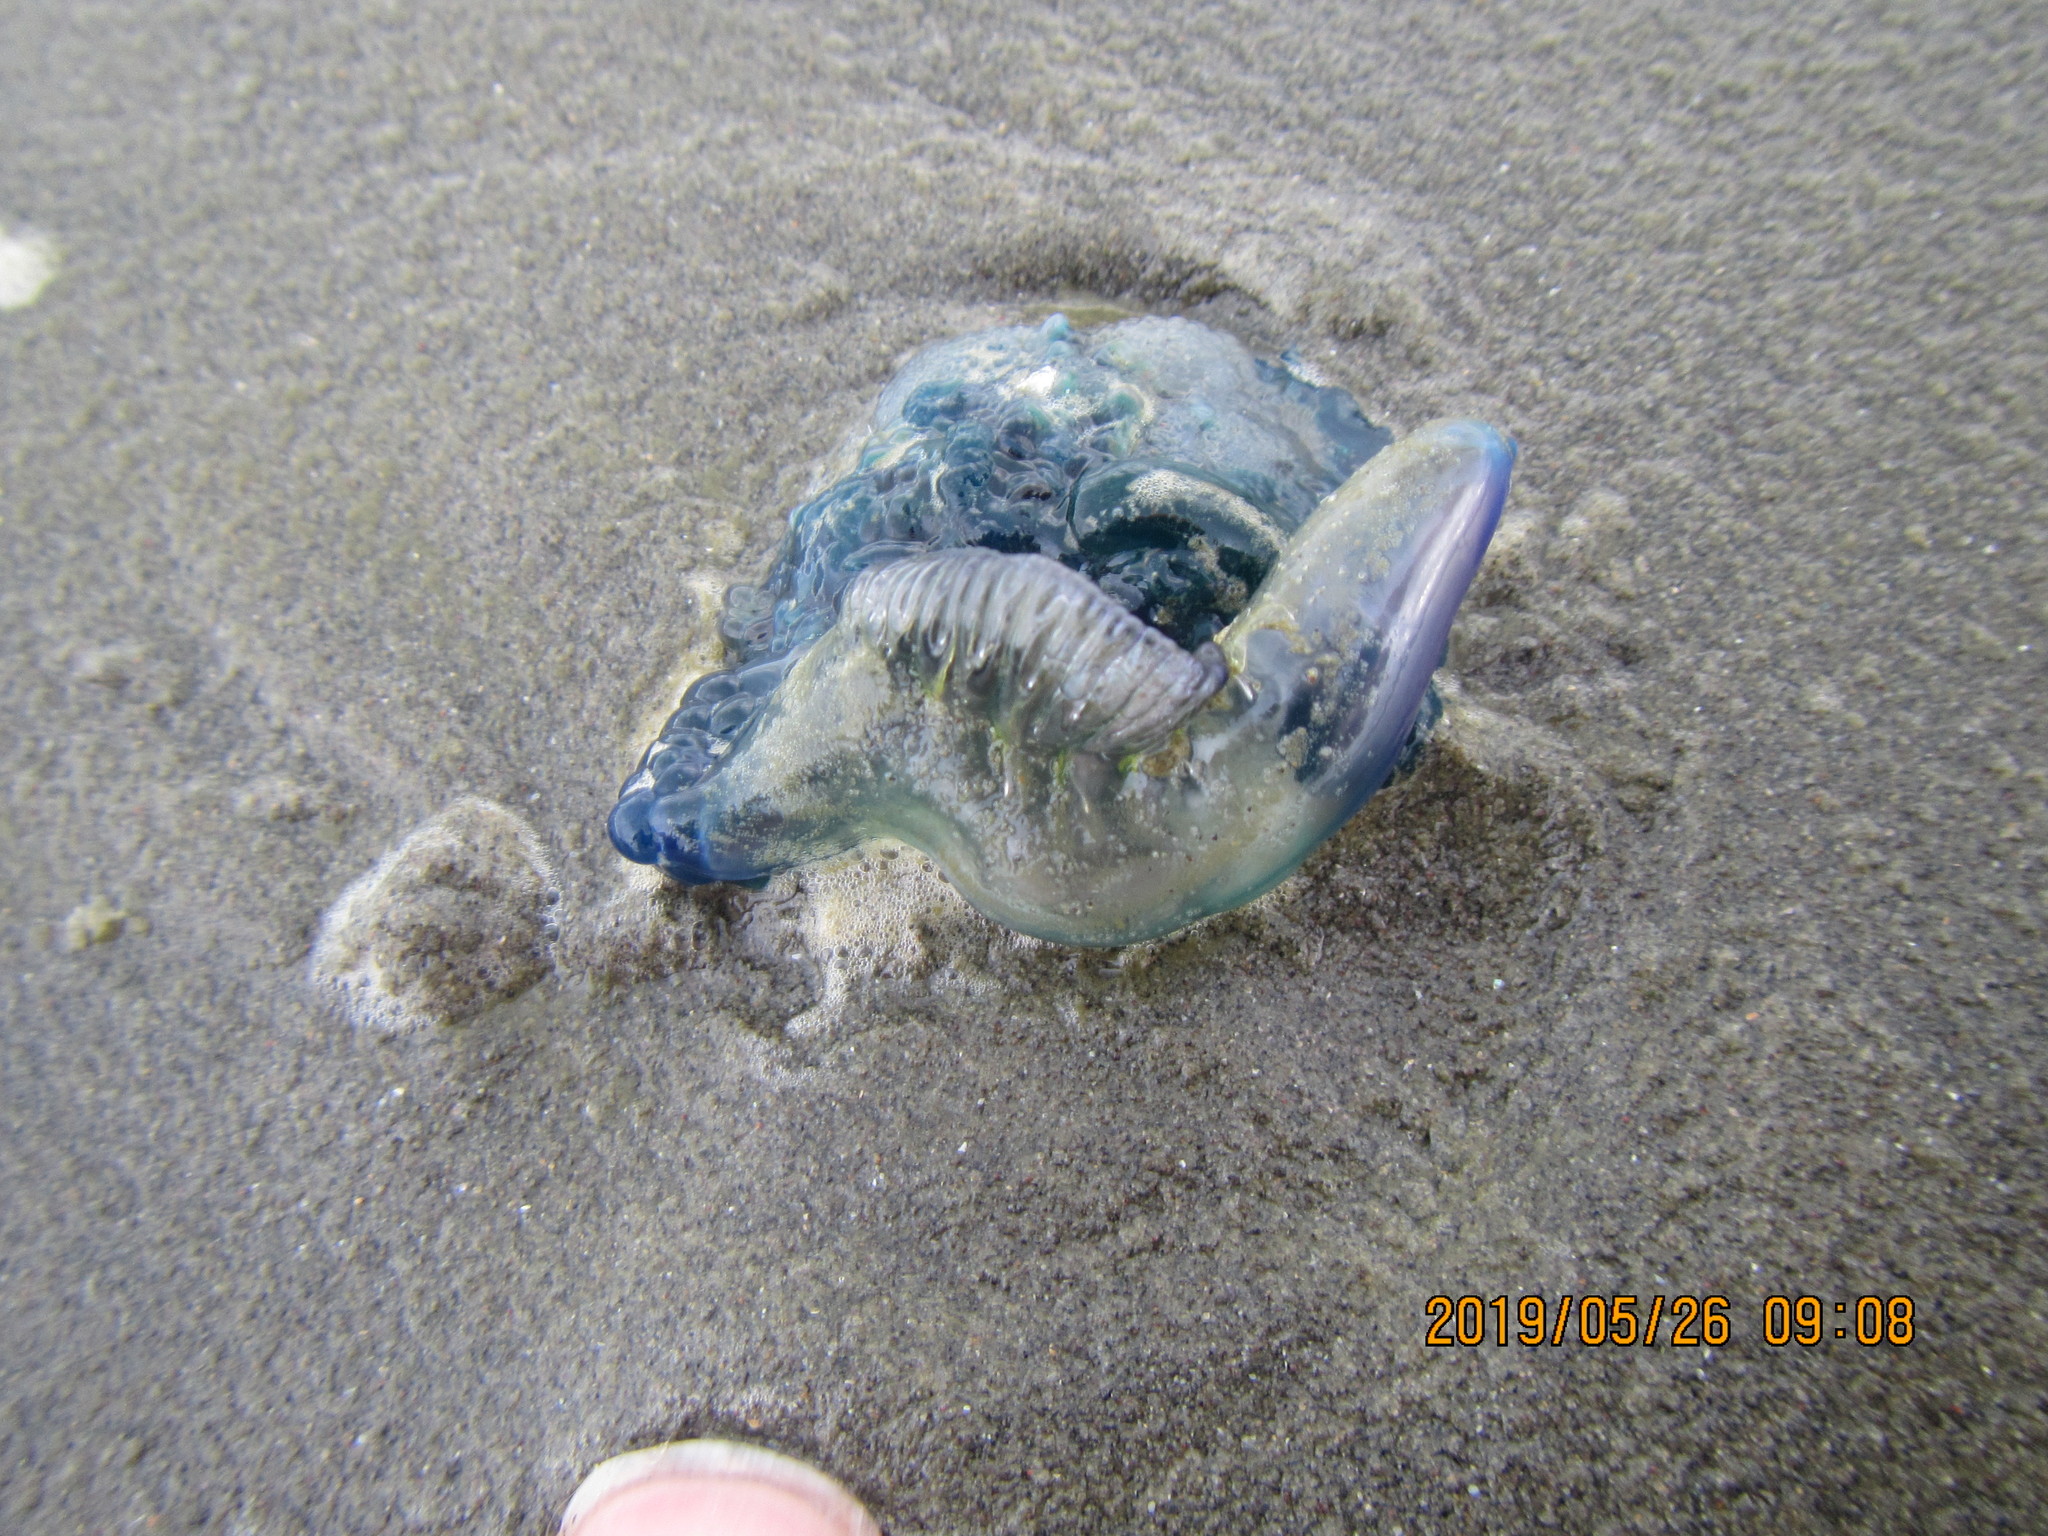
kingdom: Animalia
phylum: Cnidaria
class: Hydrozoa
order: Siphonophorae
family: Physaliidae
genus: Physalia
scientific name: Physalia physalis
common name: Portuguese man-of-war
